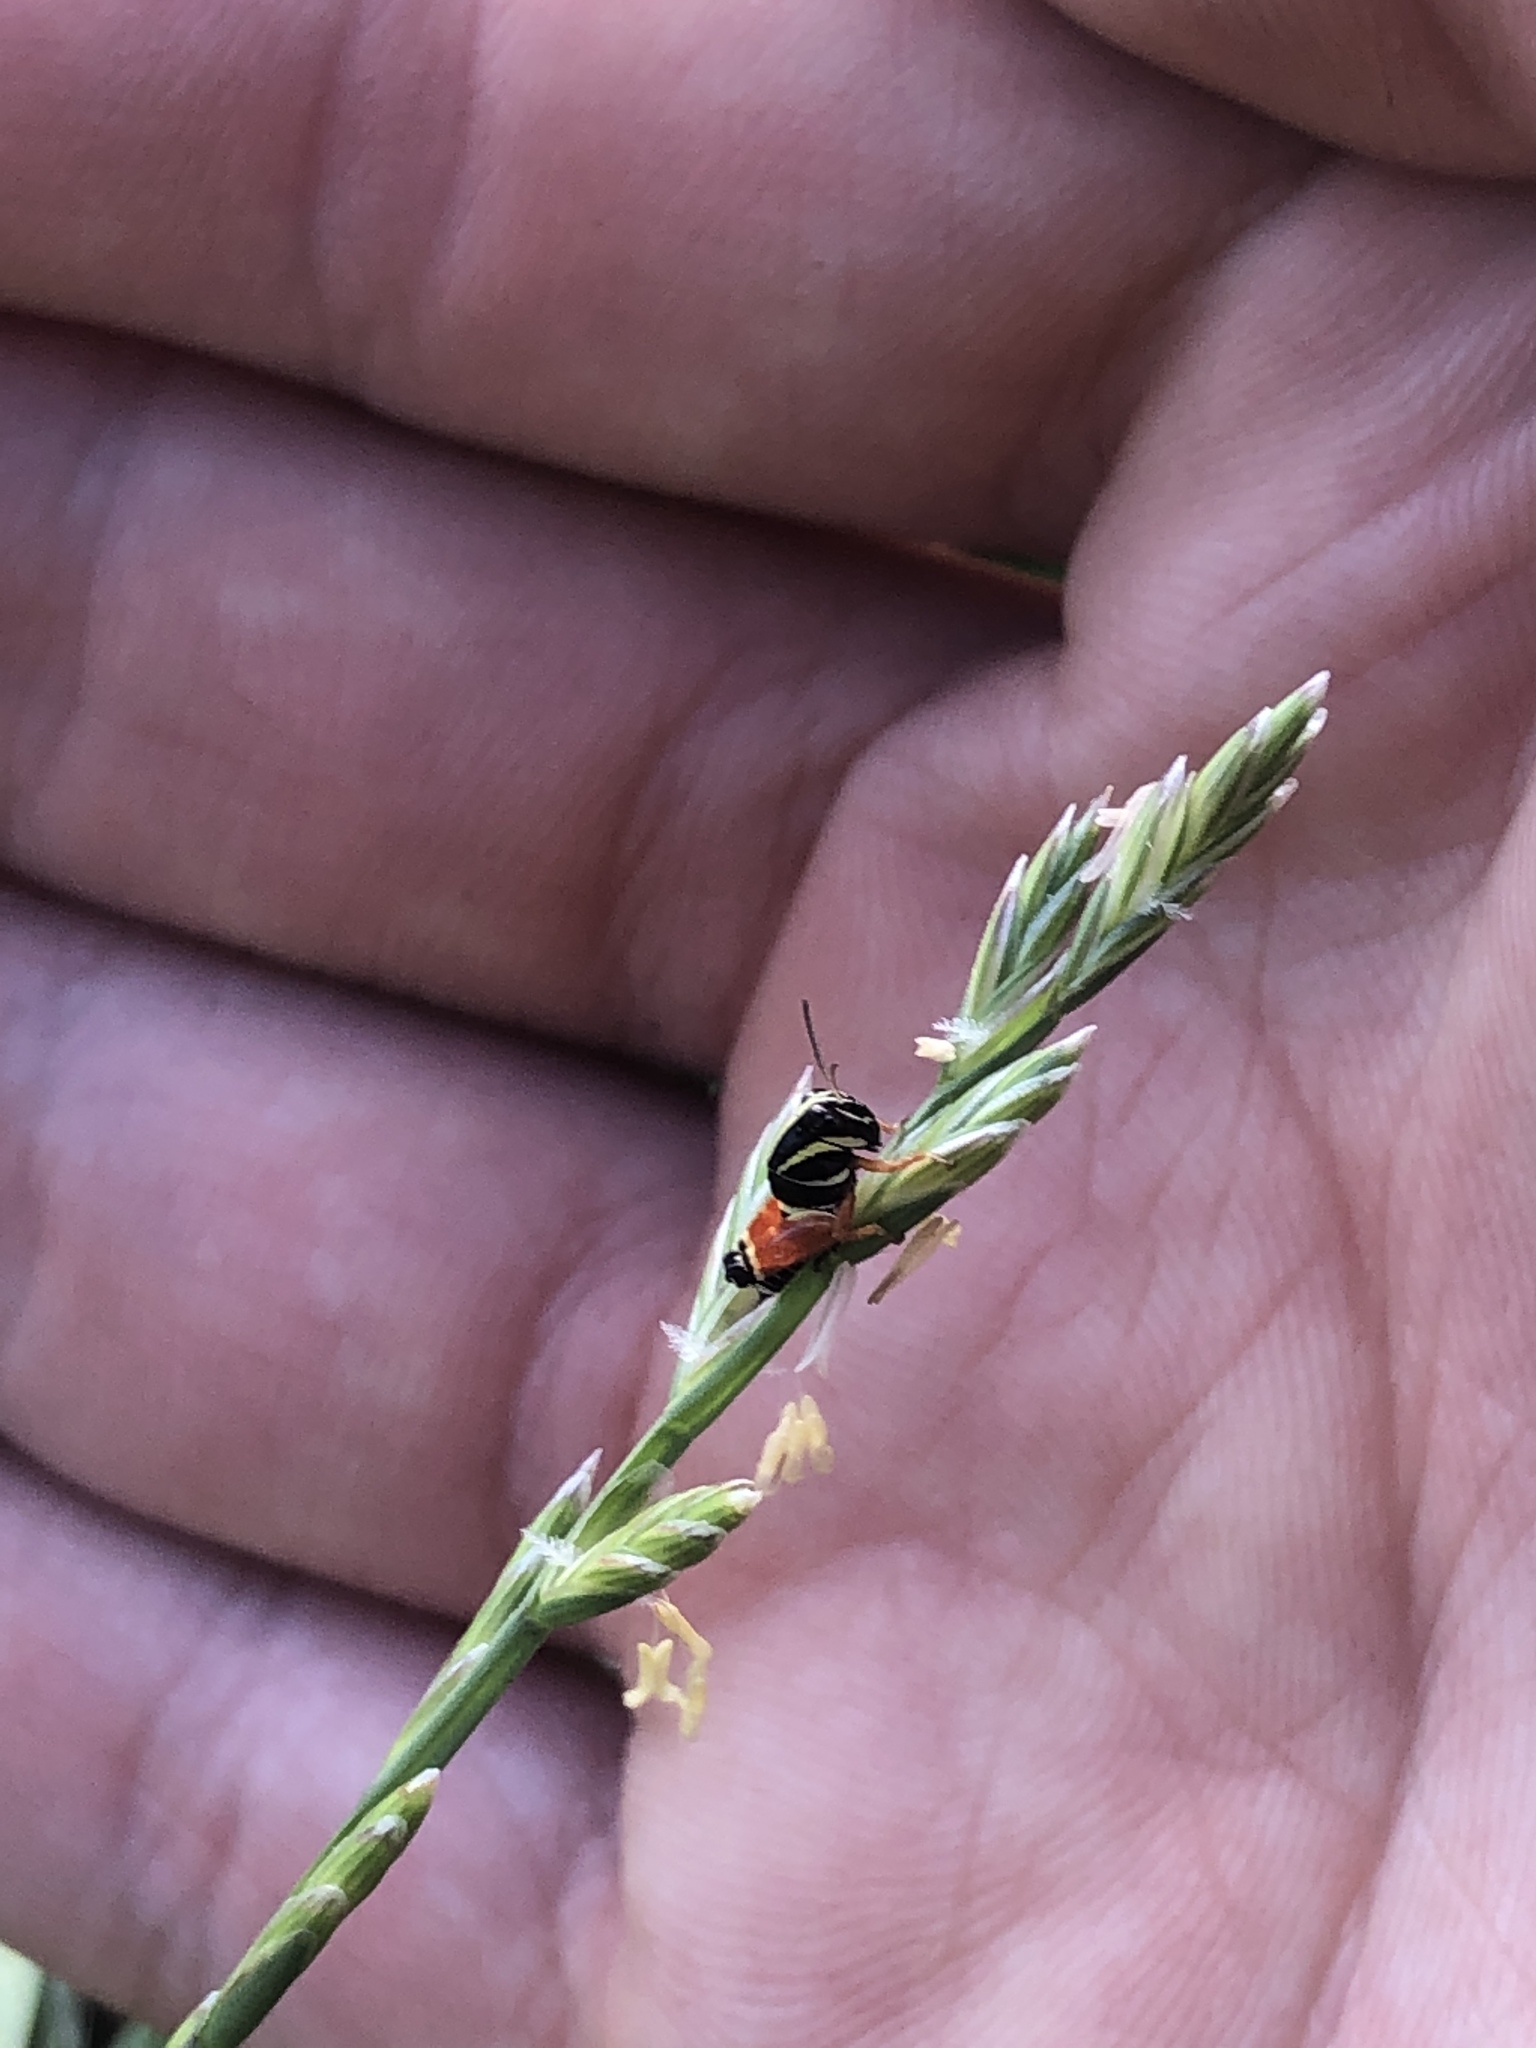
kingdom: Animalia
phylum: Arthropoda
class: Insecta
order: Orthoptera
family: Acrididae
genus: Aidemona
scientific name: Aidemona azteca
